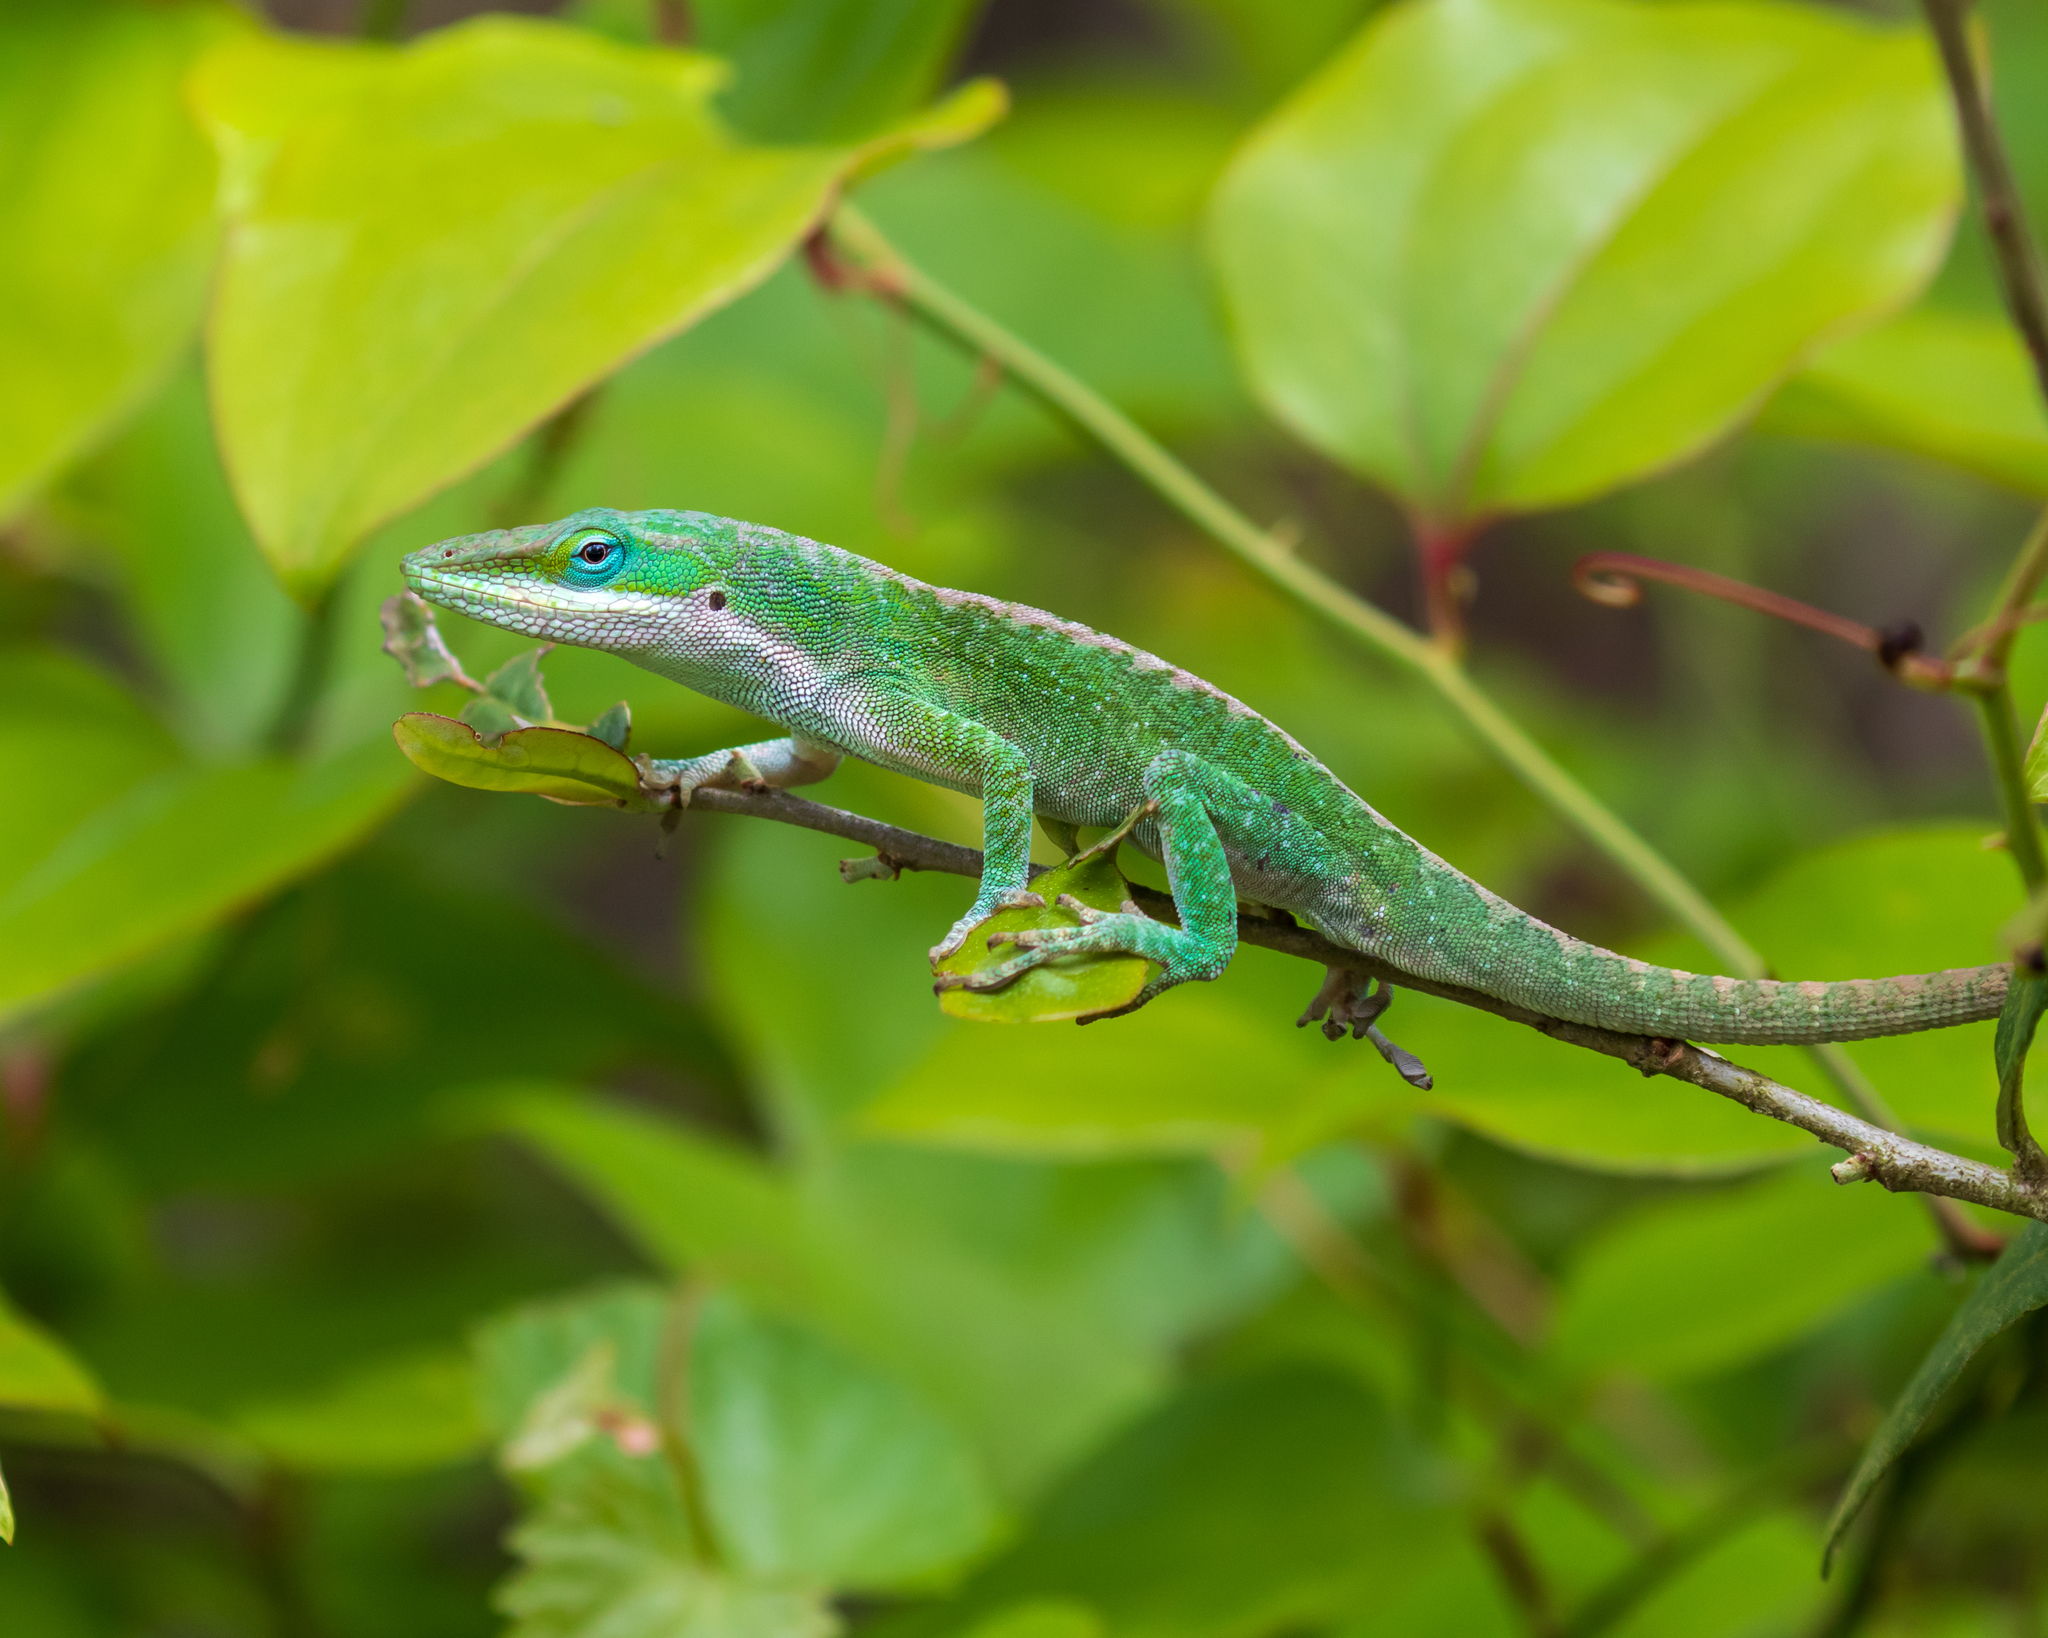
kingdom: Animalia
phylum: Chordata
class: Squamata
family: Dactyloidae
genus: Anolis
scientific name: Anolis carolinensis
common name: Green anole
